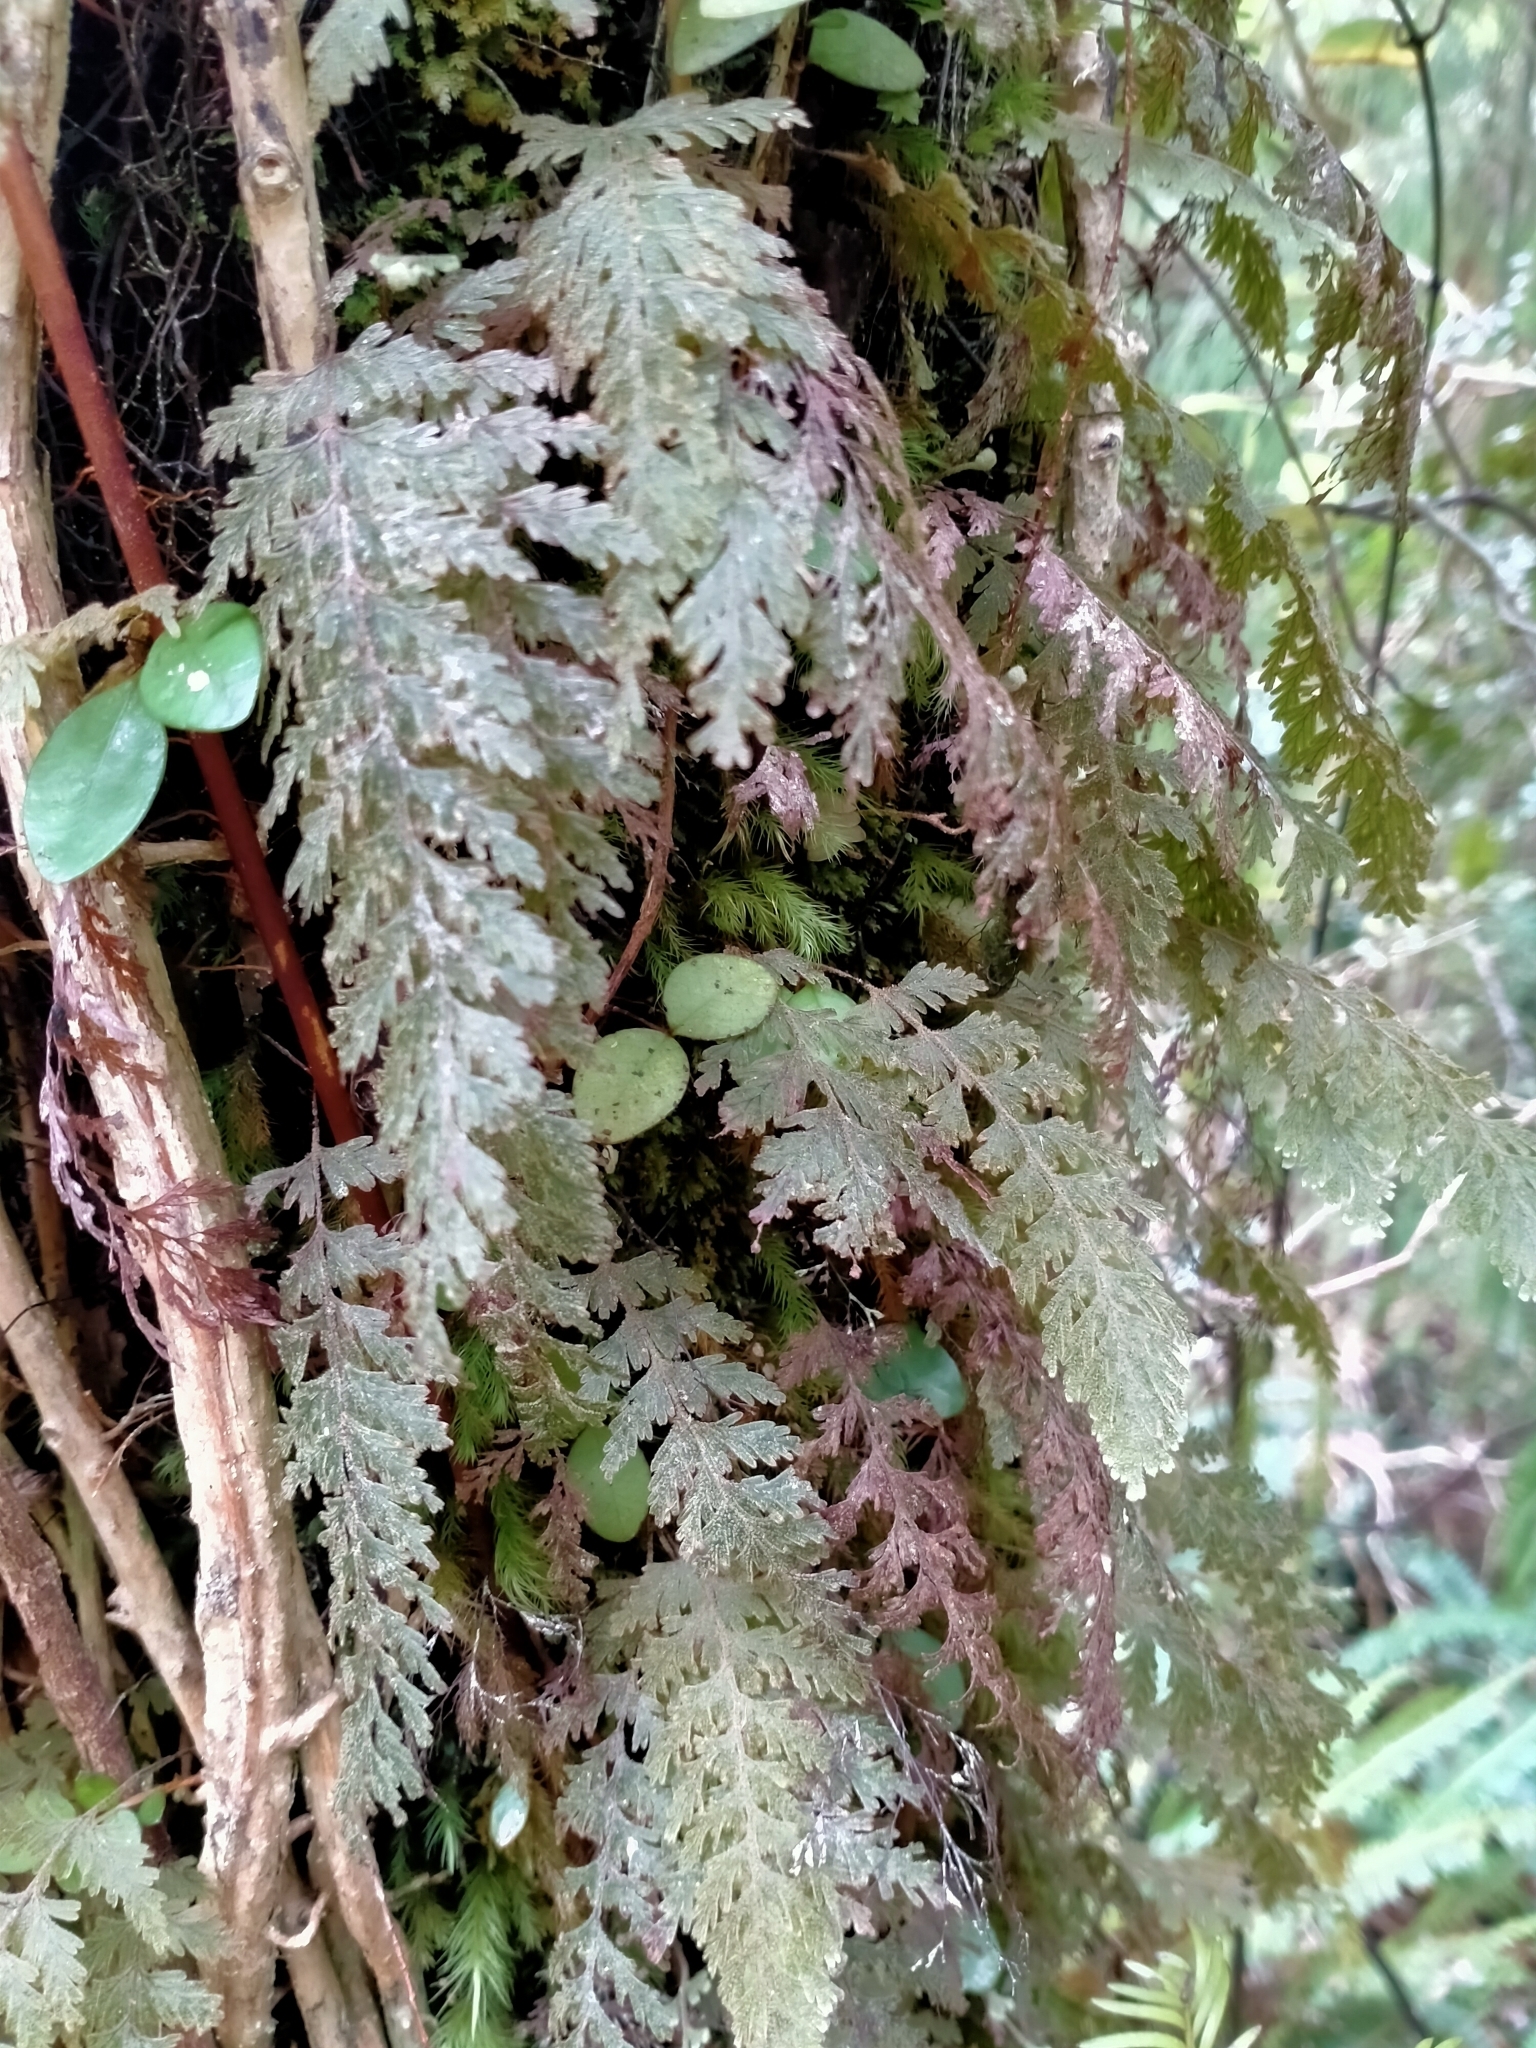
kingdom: Plantae
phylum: Tracheophyta
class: Polypodiopsida
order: Hymenophyllales
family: Hymenophyllaceae
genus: Hymenophyllum
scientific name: Hymenophyllum frankliniae
